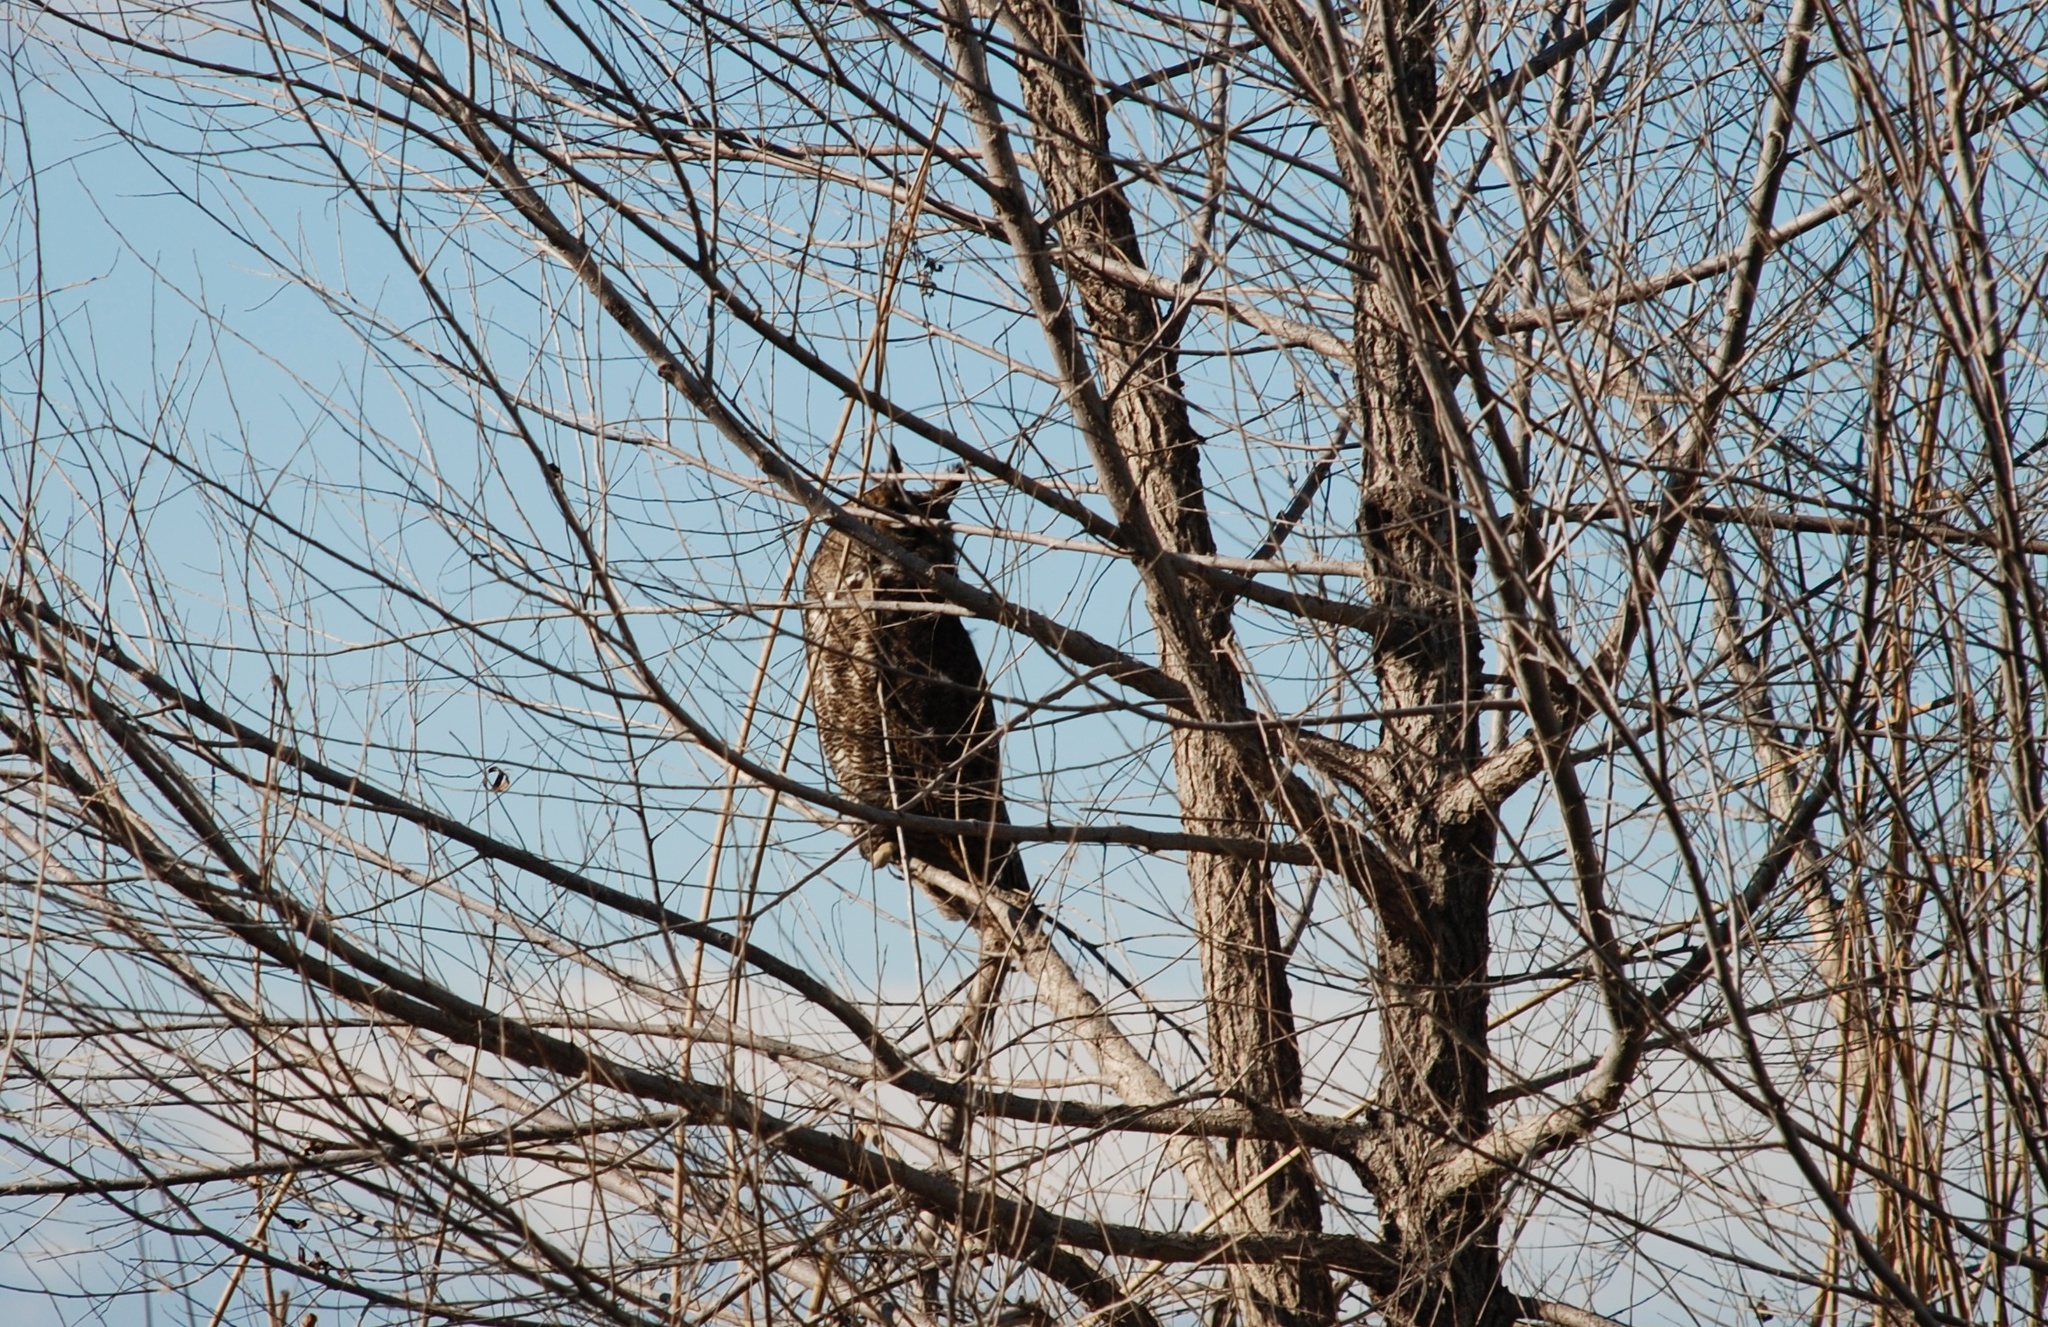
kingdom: Animalia
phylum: Chordata
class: Aves
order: Strigiformes
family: Strigidae
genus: Bubo
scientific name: Bubo virginianus
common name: Great horned owl
